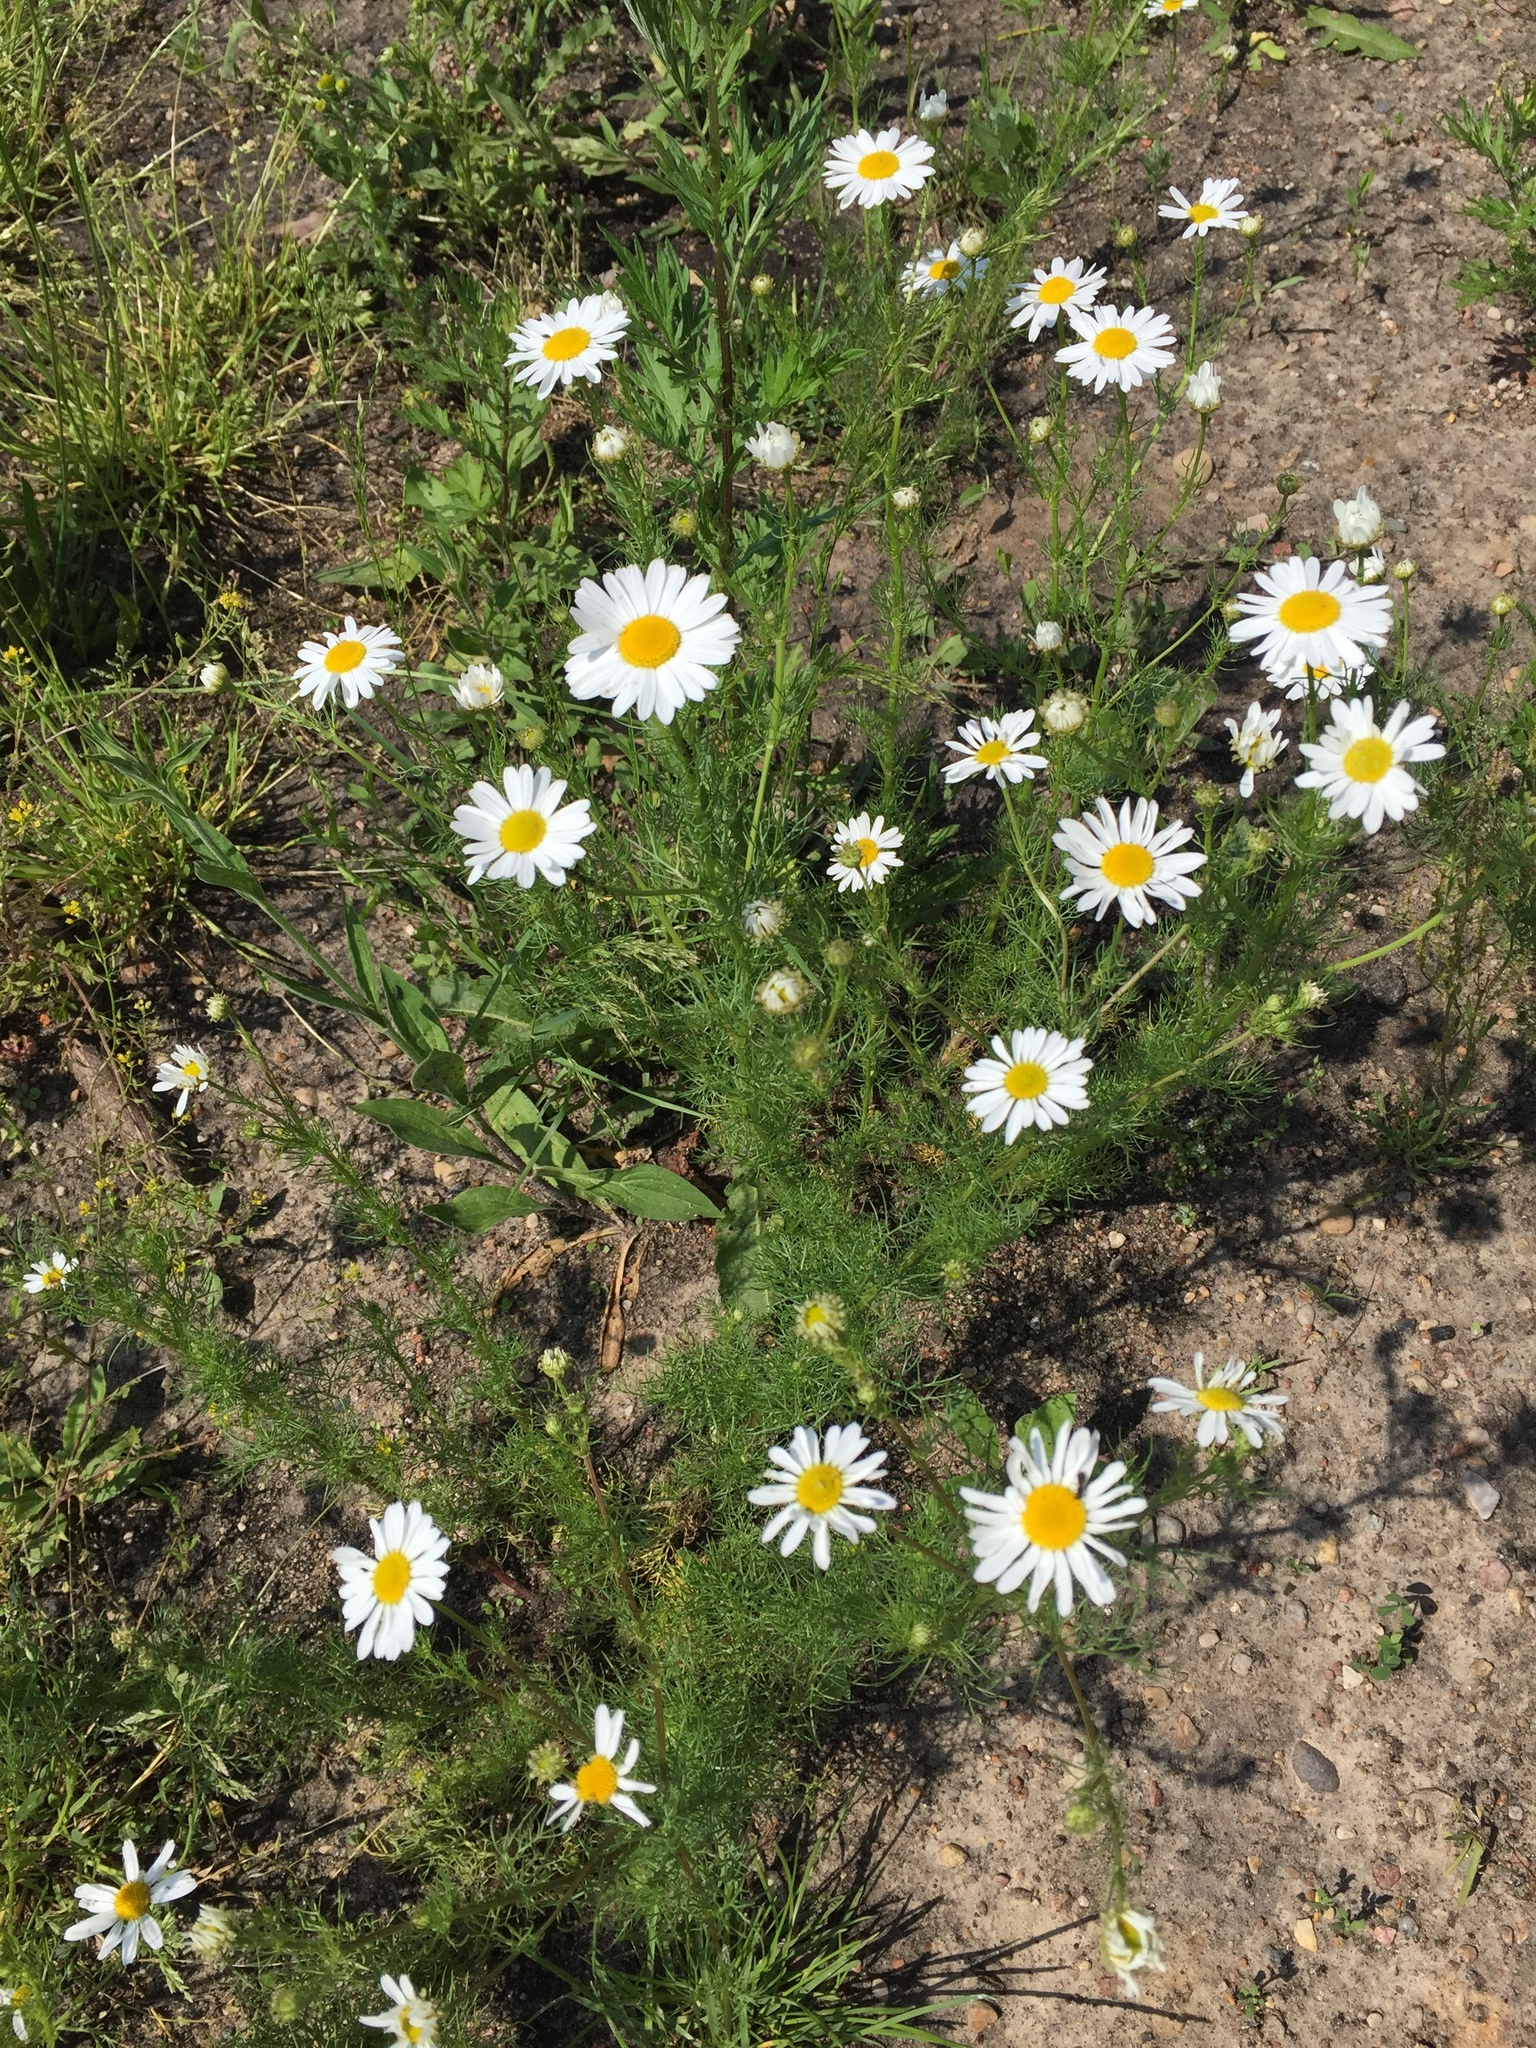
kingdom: Plantae
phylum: Tracheophyta
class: Magnoliopsida
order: Asterales
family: Asteraceae
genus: Tripleurospermum
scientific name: Tripleurospermum inodorum
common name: Scentless mayweed
